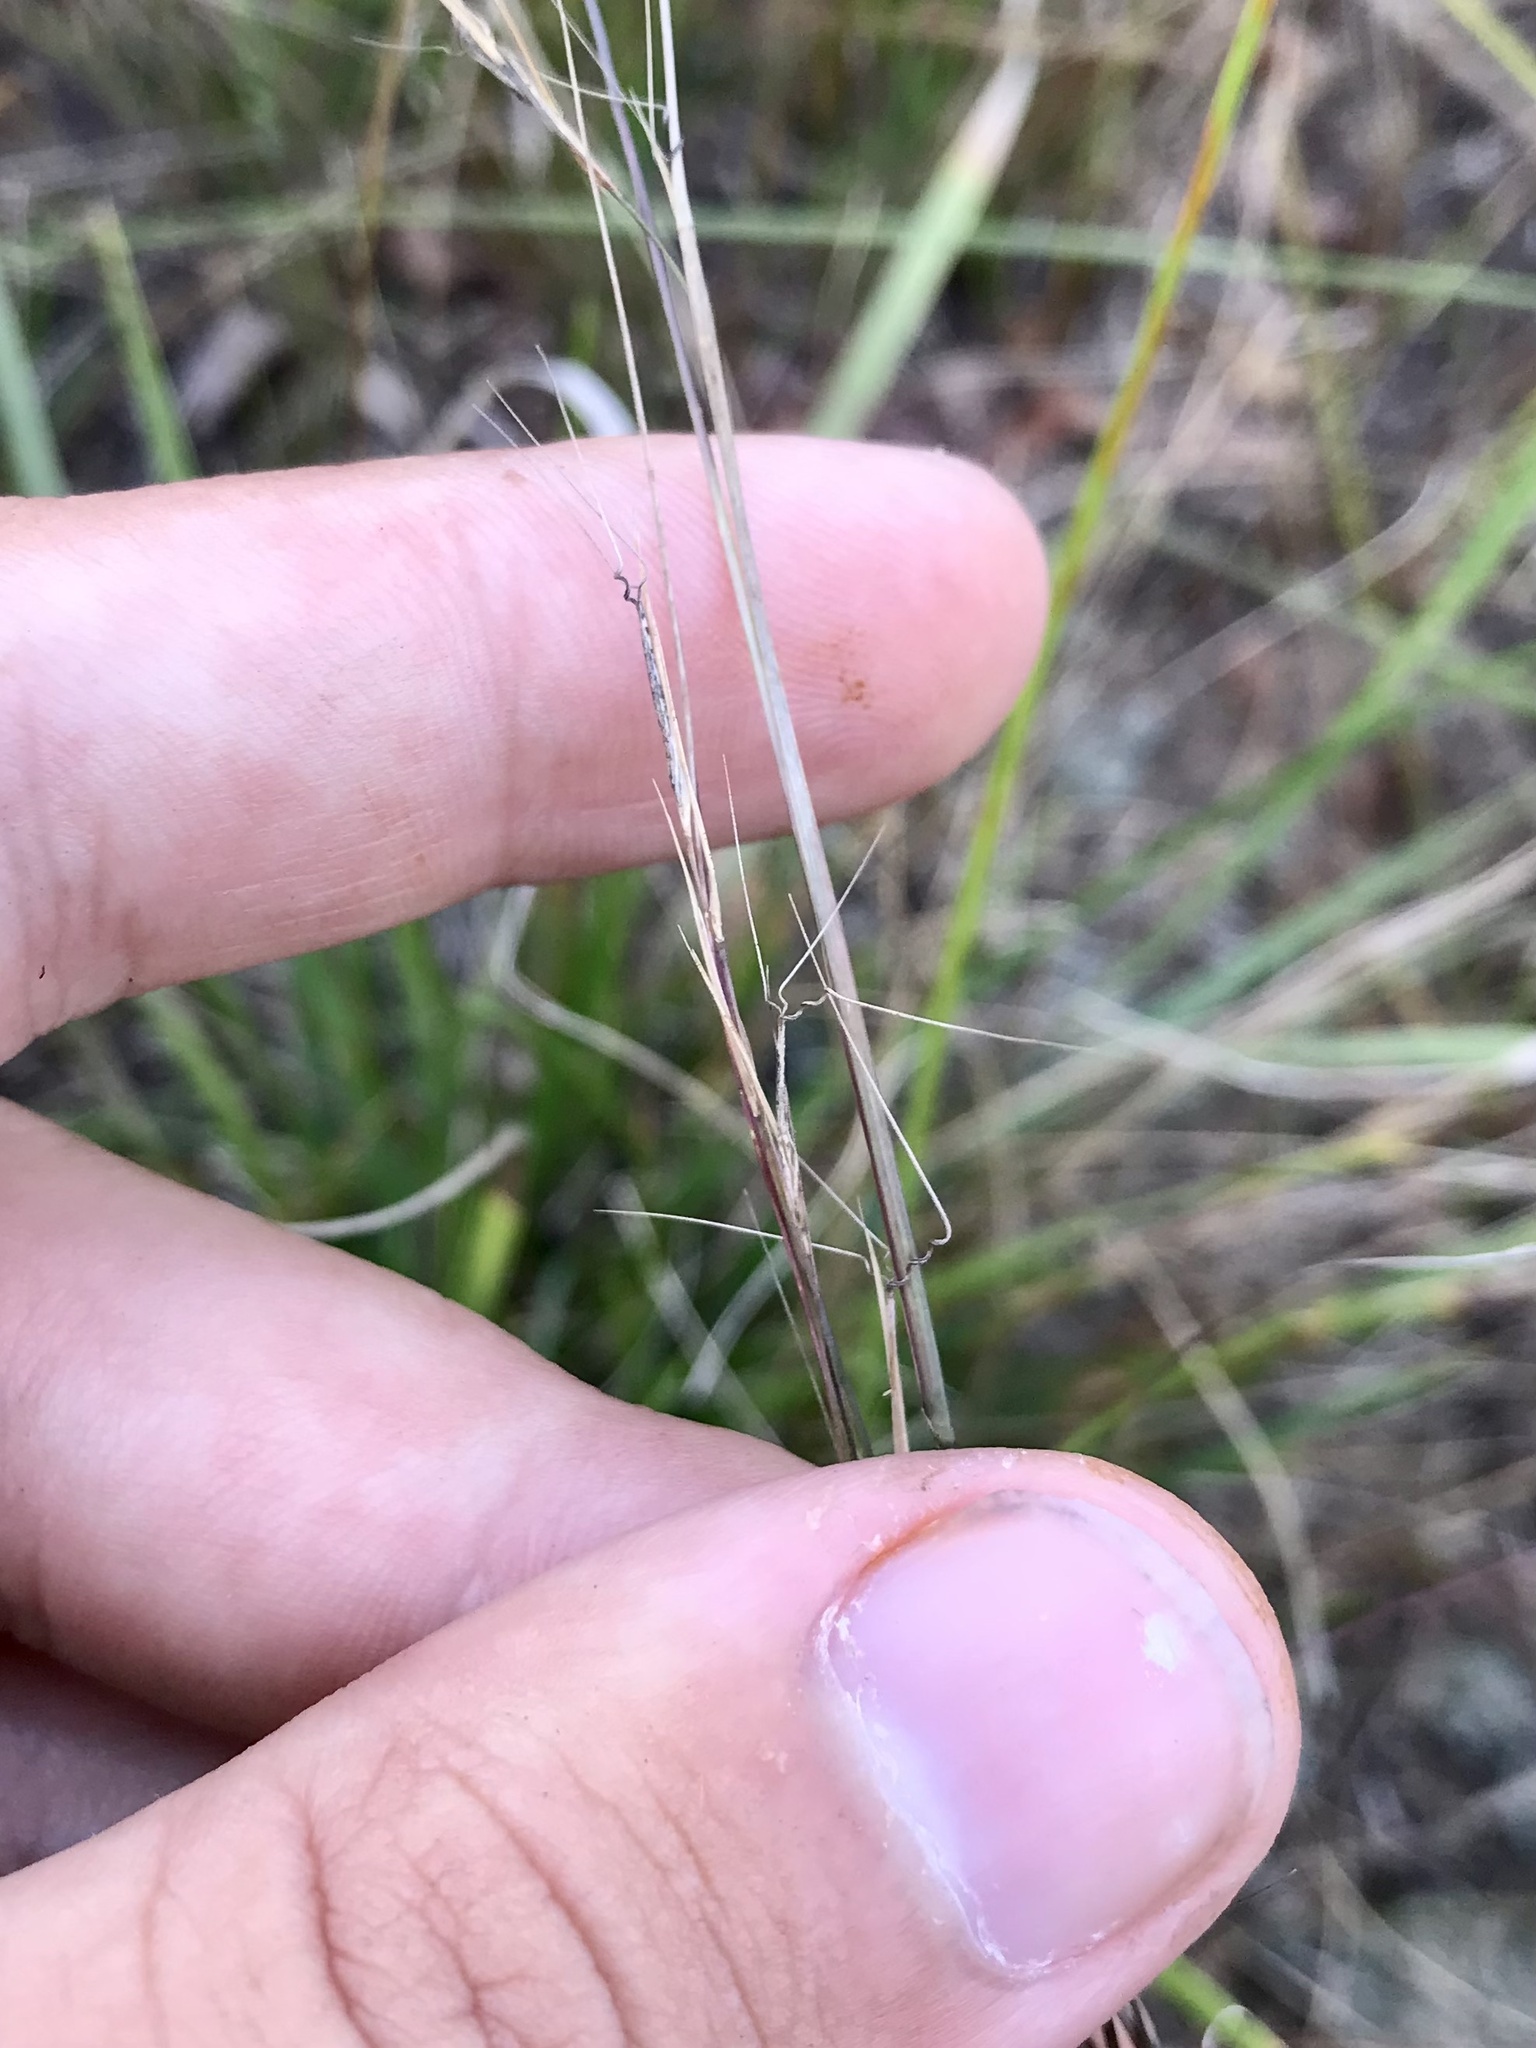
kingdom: Plantae
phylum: Tracheophyta
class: Liliopsida
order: Poales
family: Poaceae
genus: Aristida
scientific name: Aristida basiramea
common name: Forked three-awned grass
